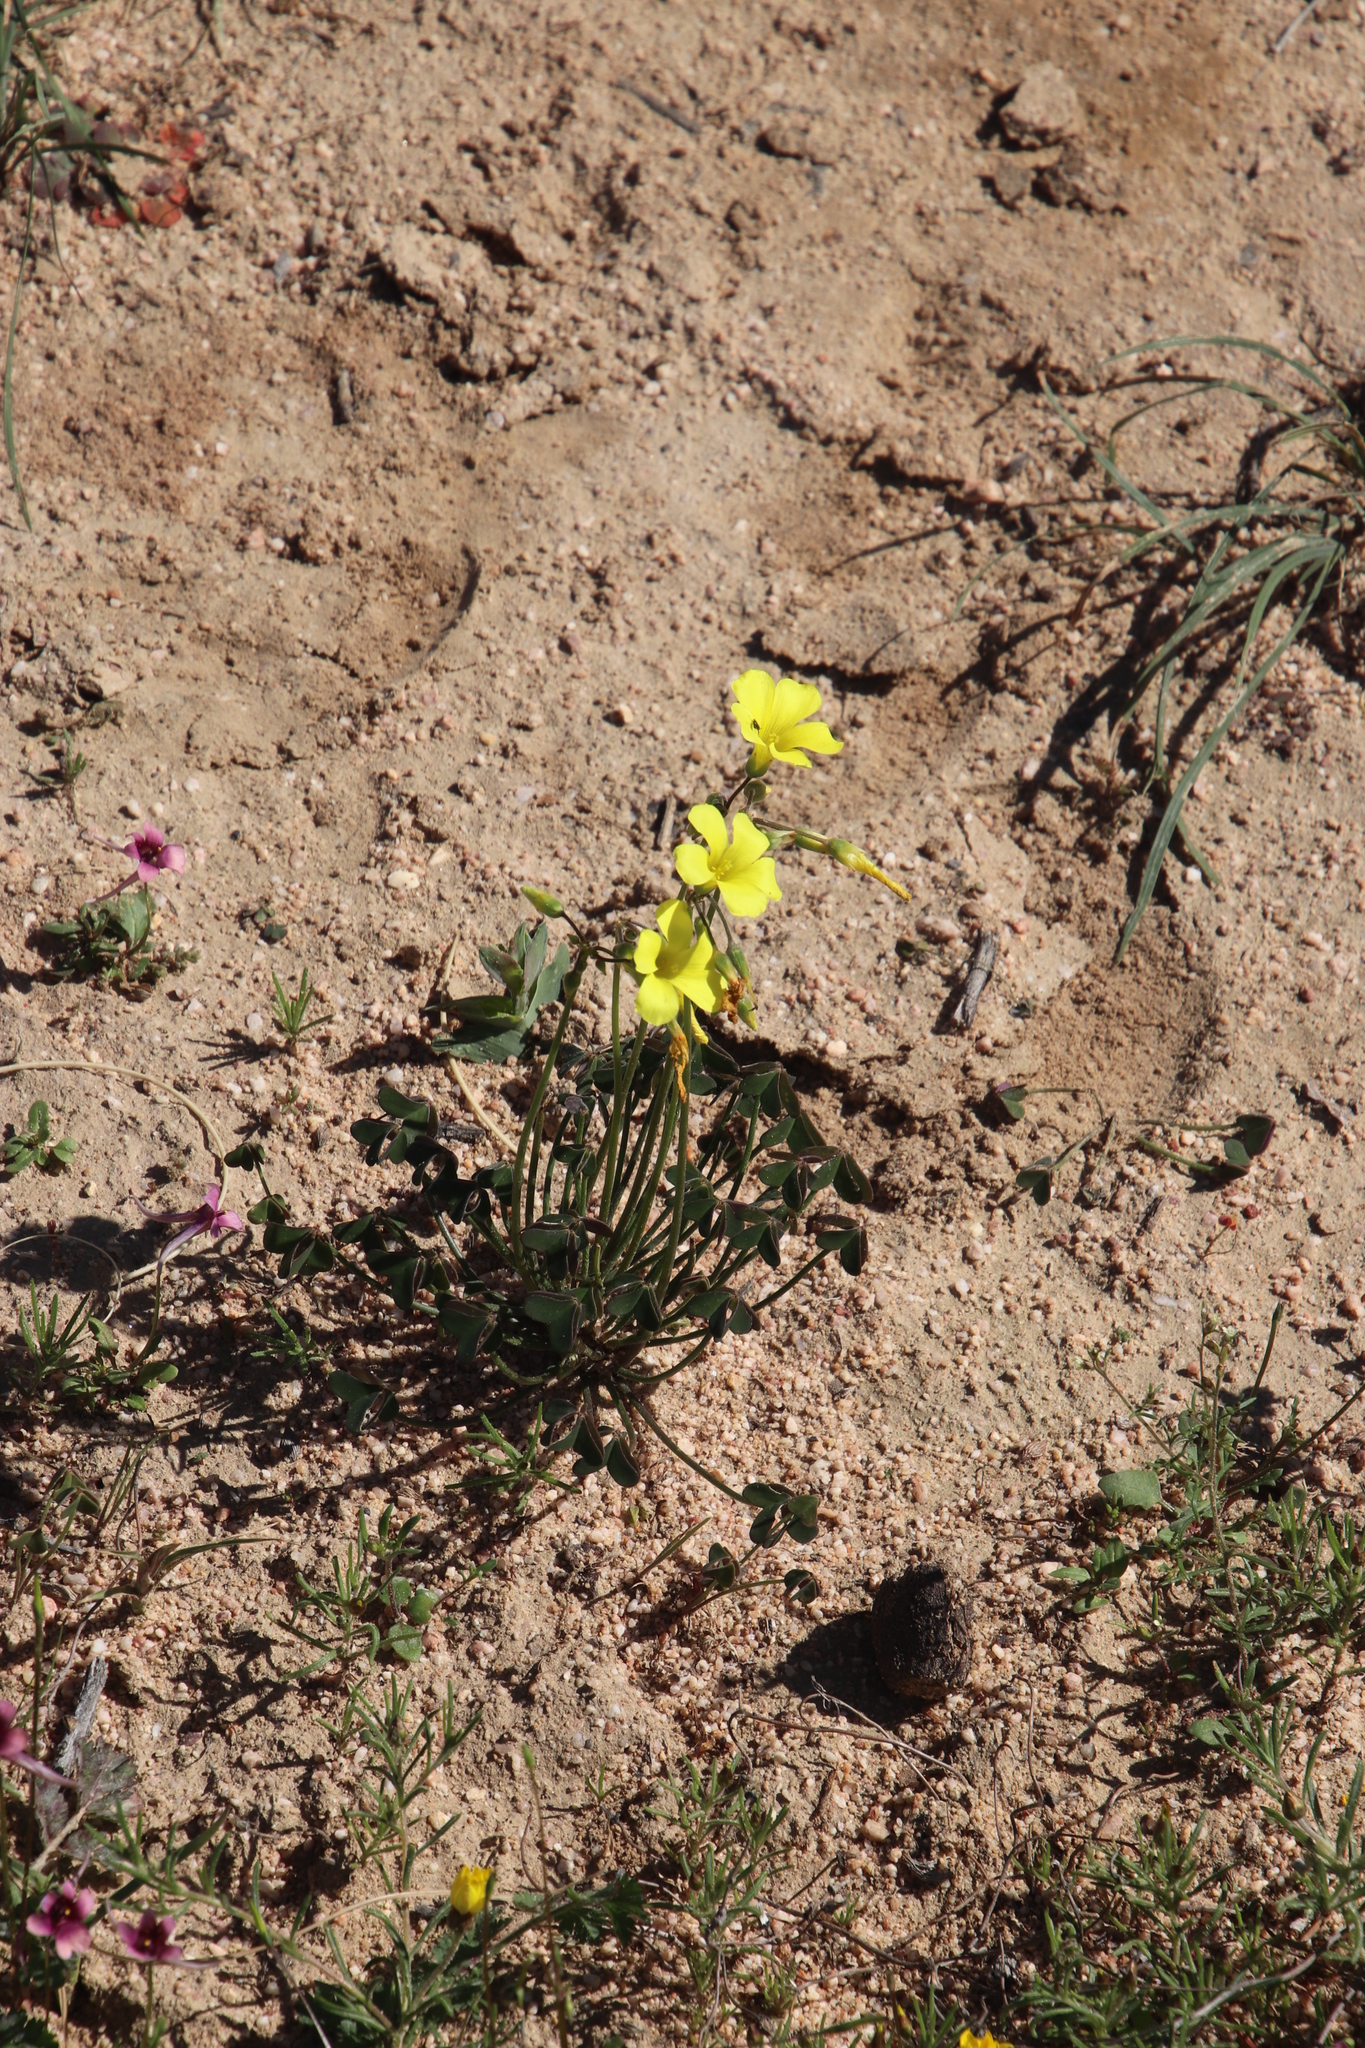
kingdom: Plantae
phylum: Tracheophyta
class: Magnoliopsida
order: Oxalidales
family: Oxalidaceae
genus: Oxalis
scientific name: Oxalis pes-caprae
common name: Bermuda-buttercup
